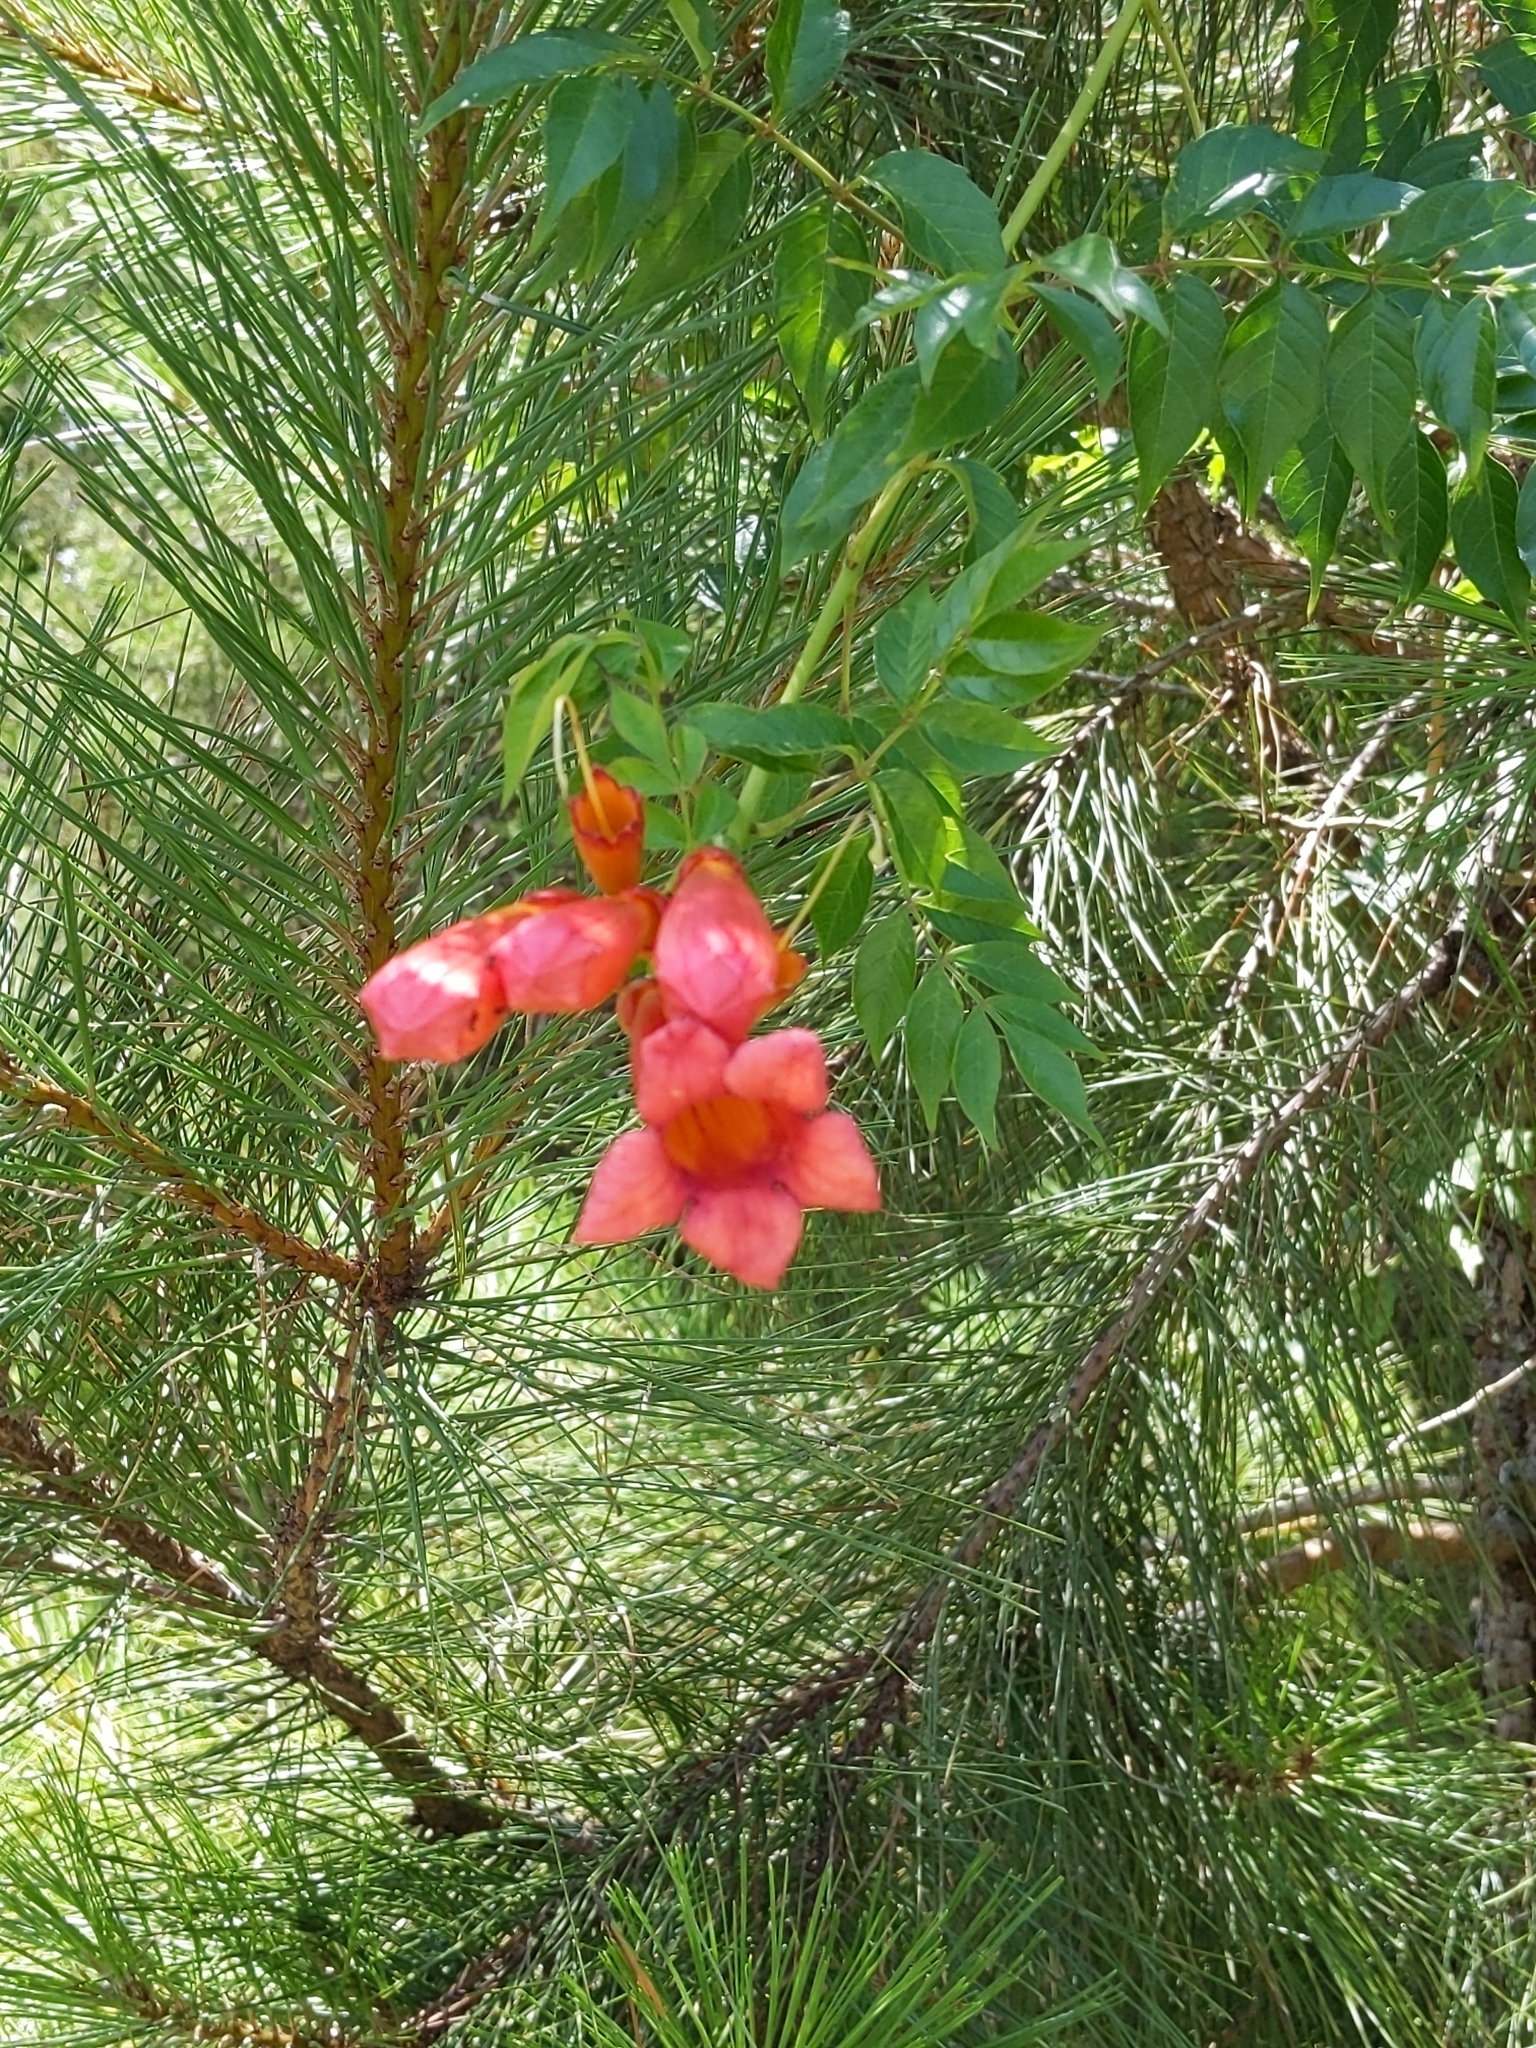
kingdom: Plantae
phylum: Tracheophyta
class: Magnoliopsida
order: Lamiales
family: Bignoniaceae
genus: Campsis
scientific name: Campsis radicans
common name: Trumpet-creeper
